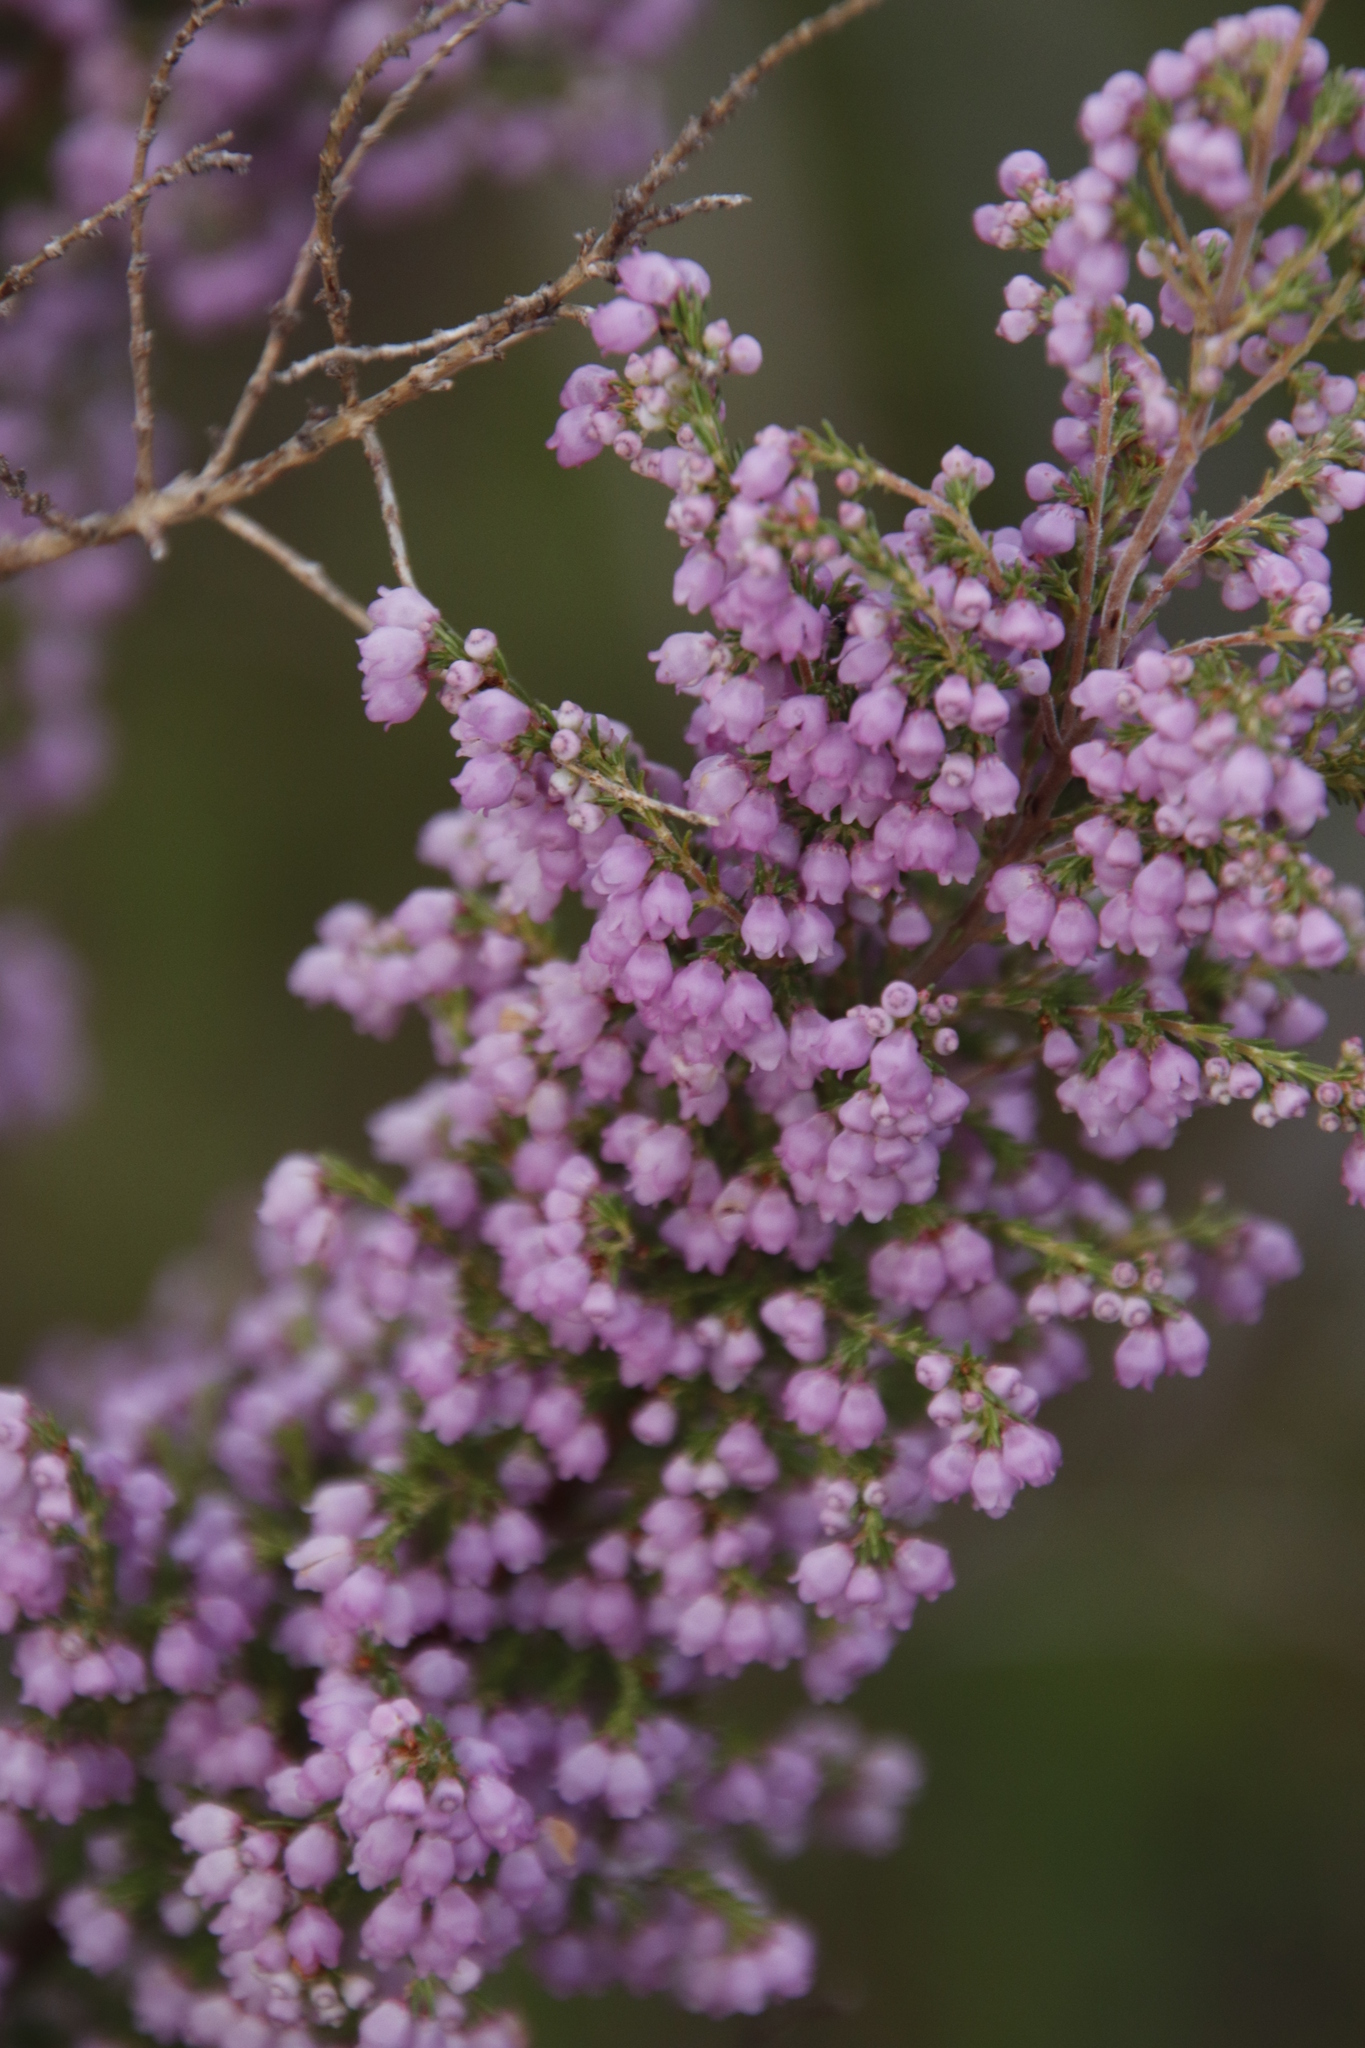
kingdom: Plantae
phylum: Tracheophyta
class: Magnoliopsida
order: Ericales
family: Ericaceae
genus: Erica
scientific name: Erica mauritanica
